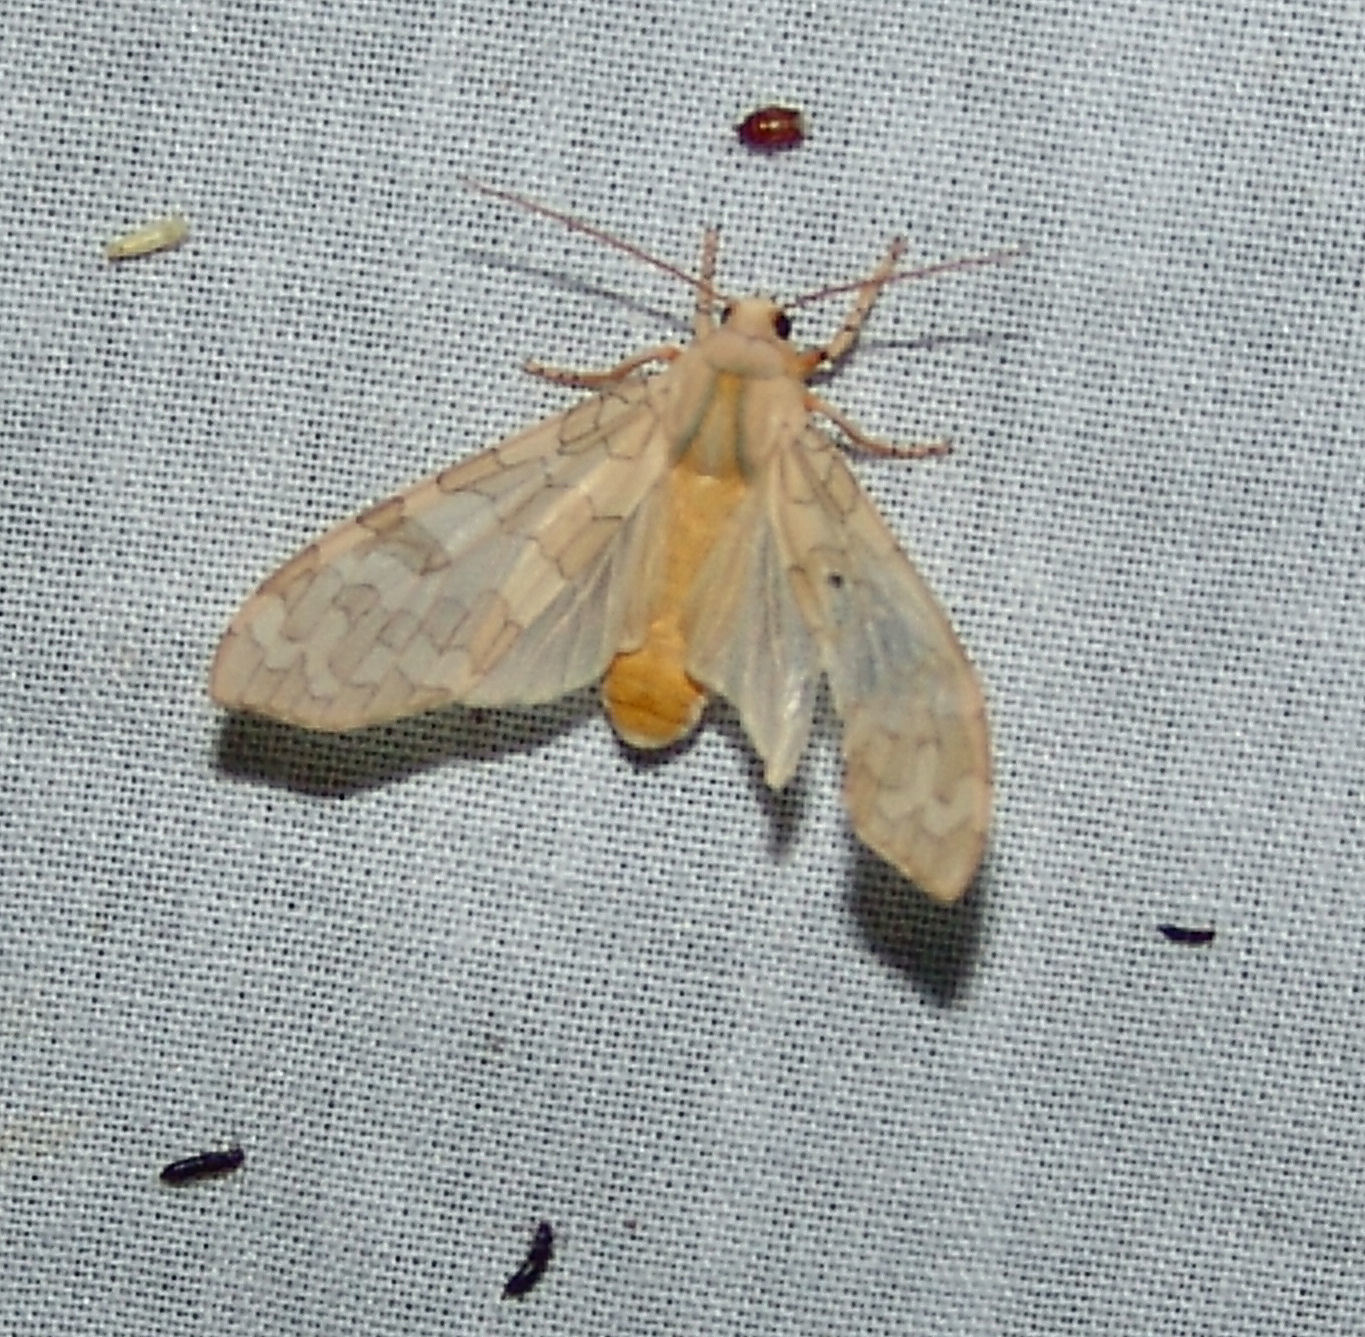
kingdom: Animalia
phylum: Arthropoda
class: Insecta
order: Lepidoptera
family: Erebidae
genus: Halysidota
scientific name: Halysidota
